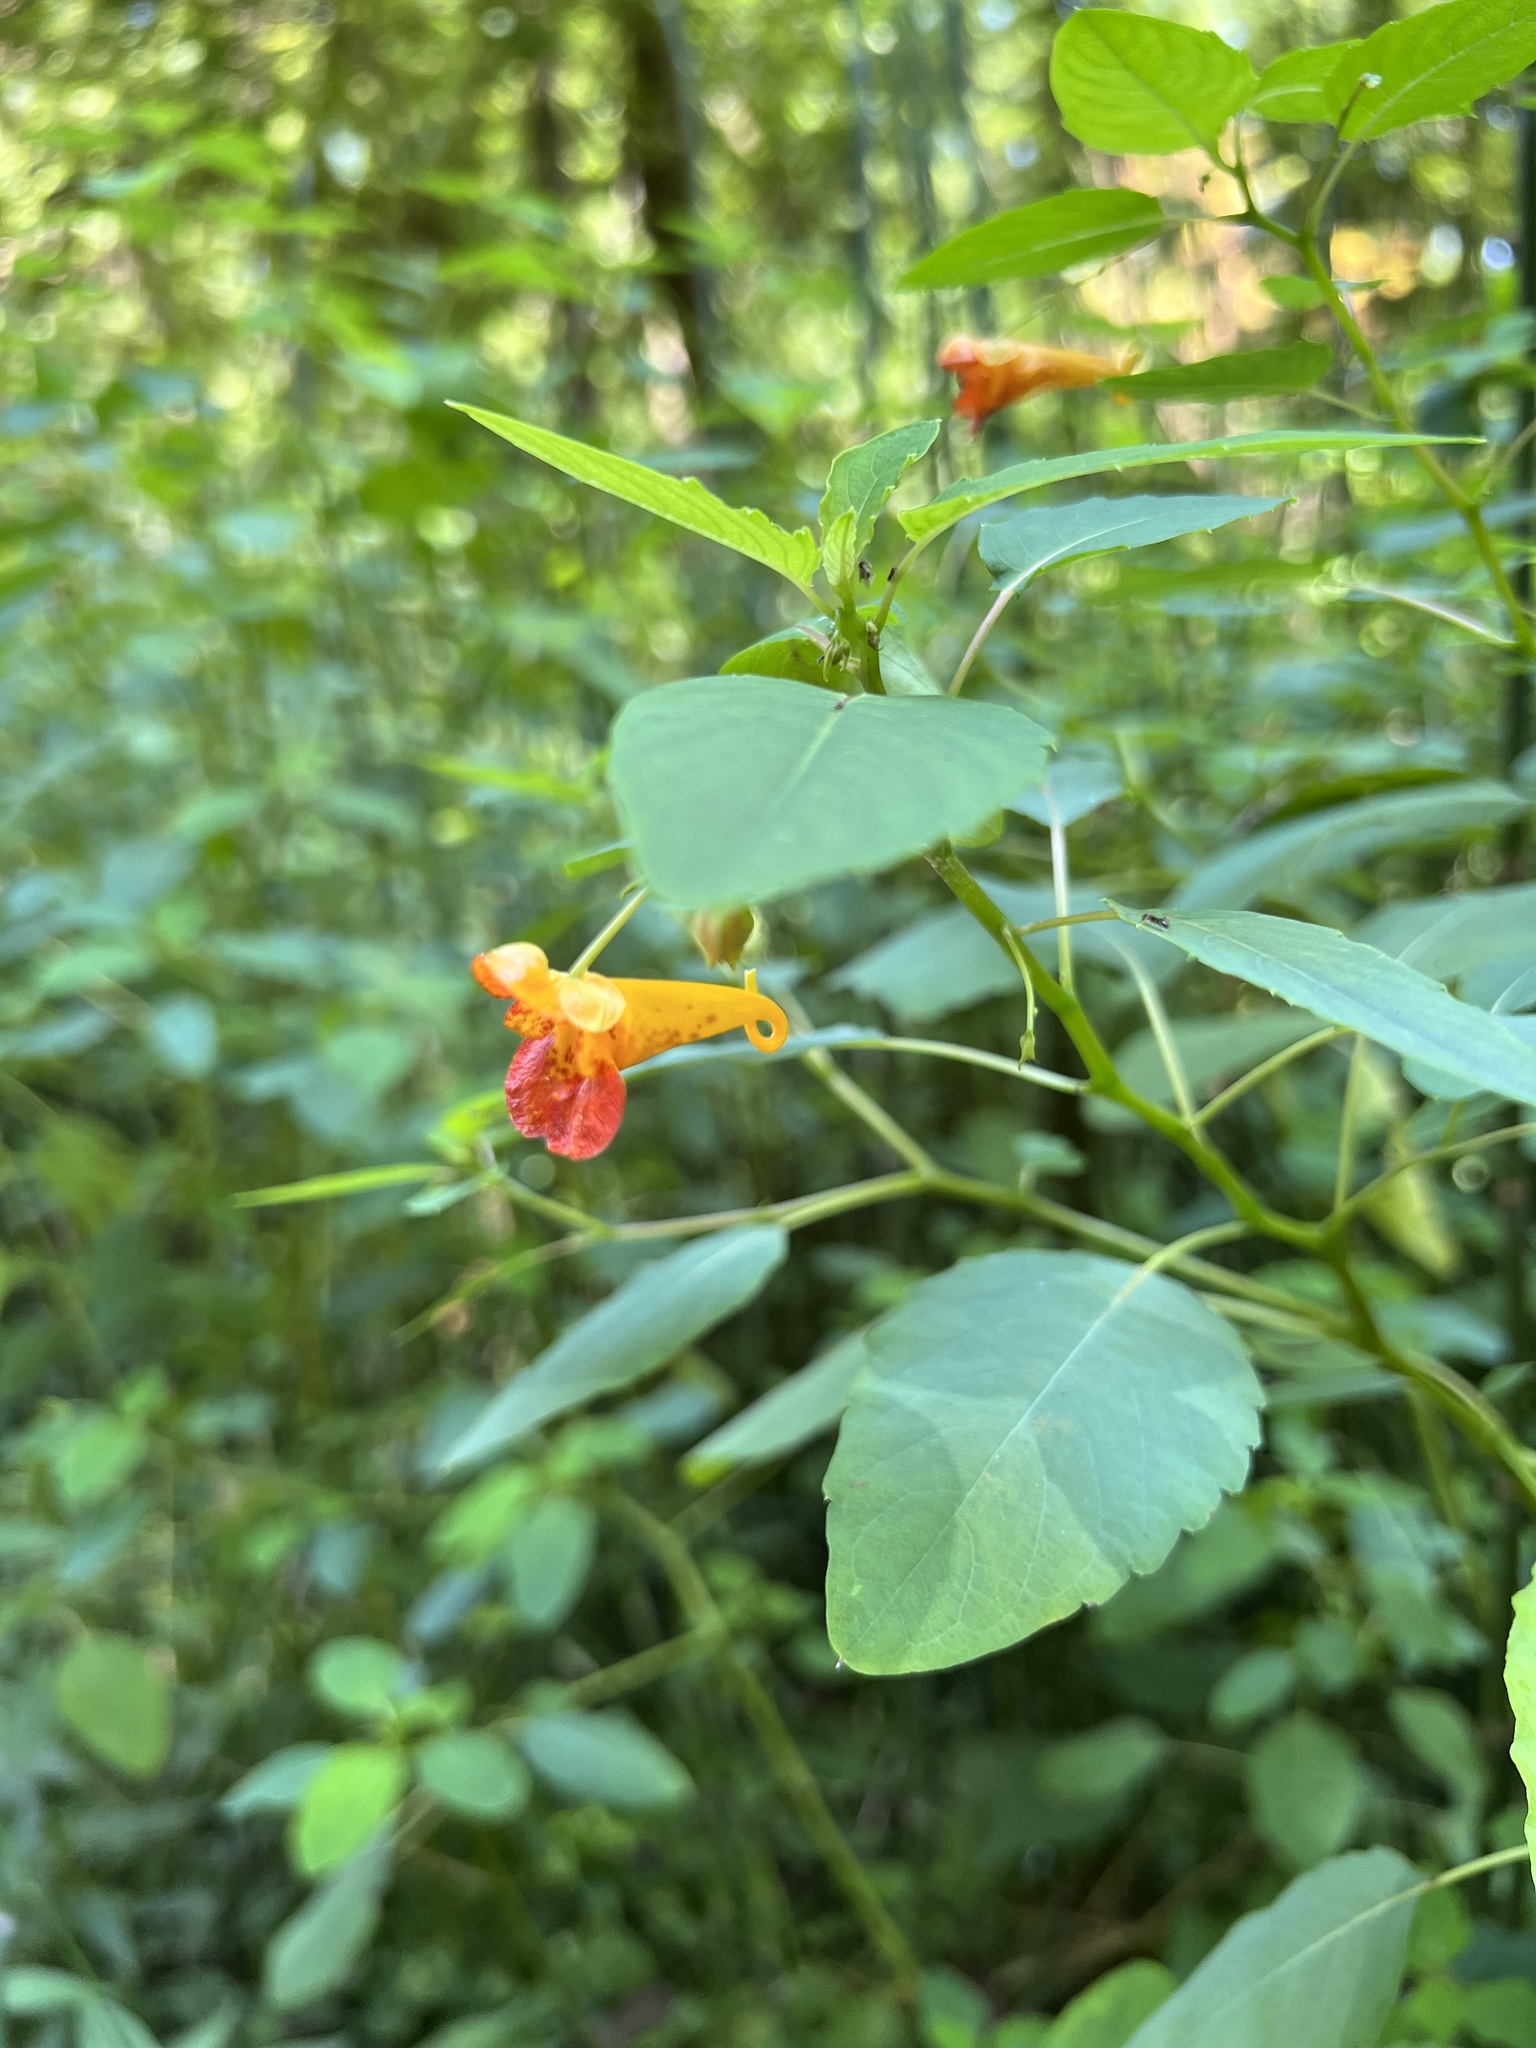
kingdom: Plantae
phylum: Tracheophyta
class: Magnoliopsida
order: Ericales
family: Balsaminaceae
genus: Impatiens
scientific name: Impatiens capensis
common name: Orange balsam
